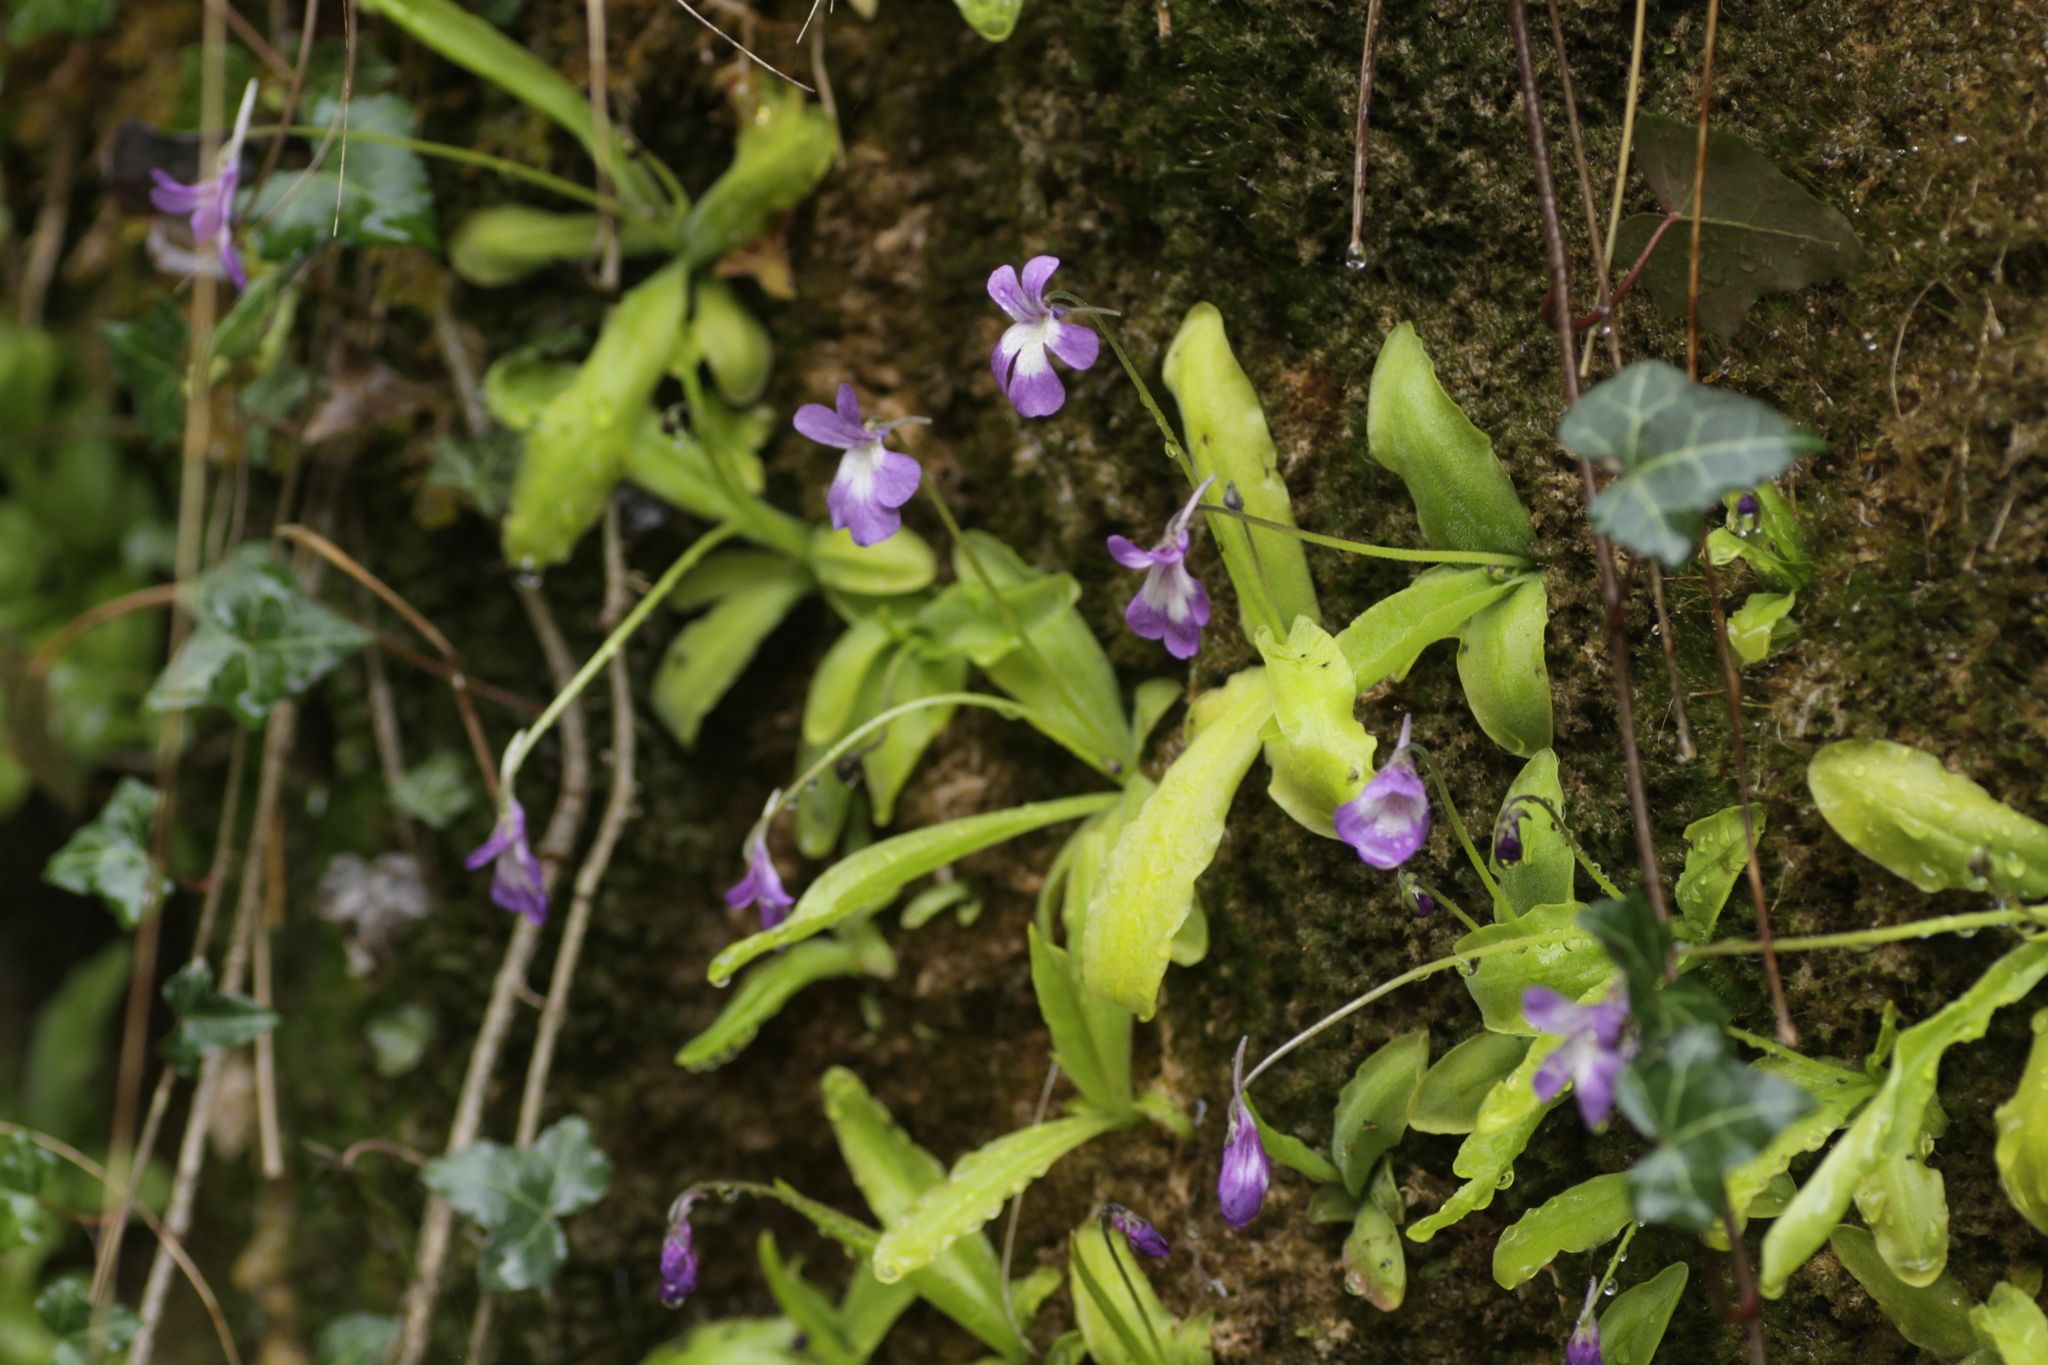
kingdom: Plantae
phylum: Tracheophyta
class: Magnoliopsida
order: Lamiales
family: Lentibulariaceae
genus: Pinguicula
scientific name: Pinguicula longifolia
